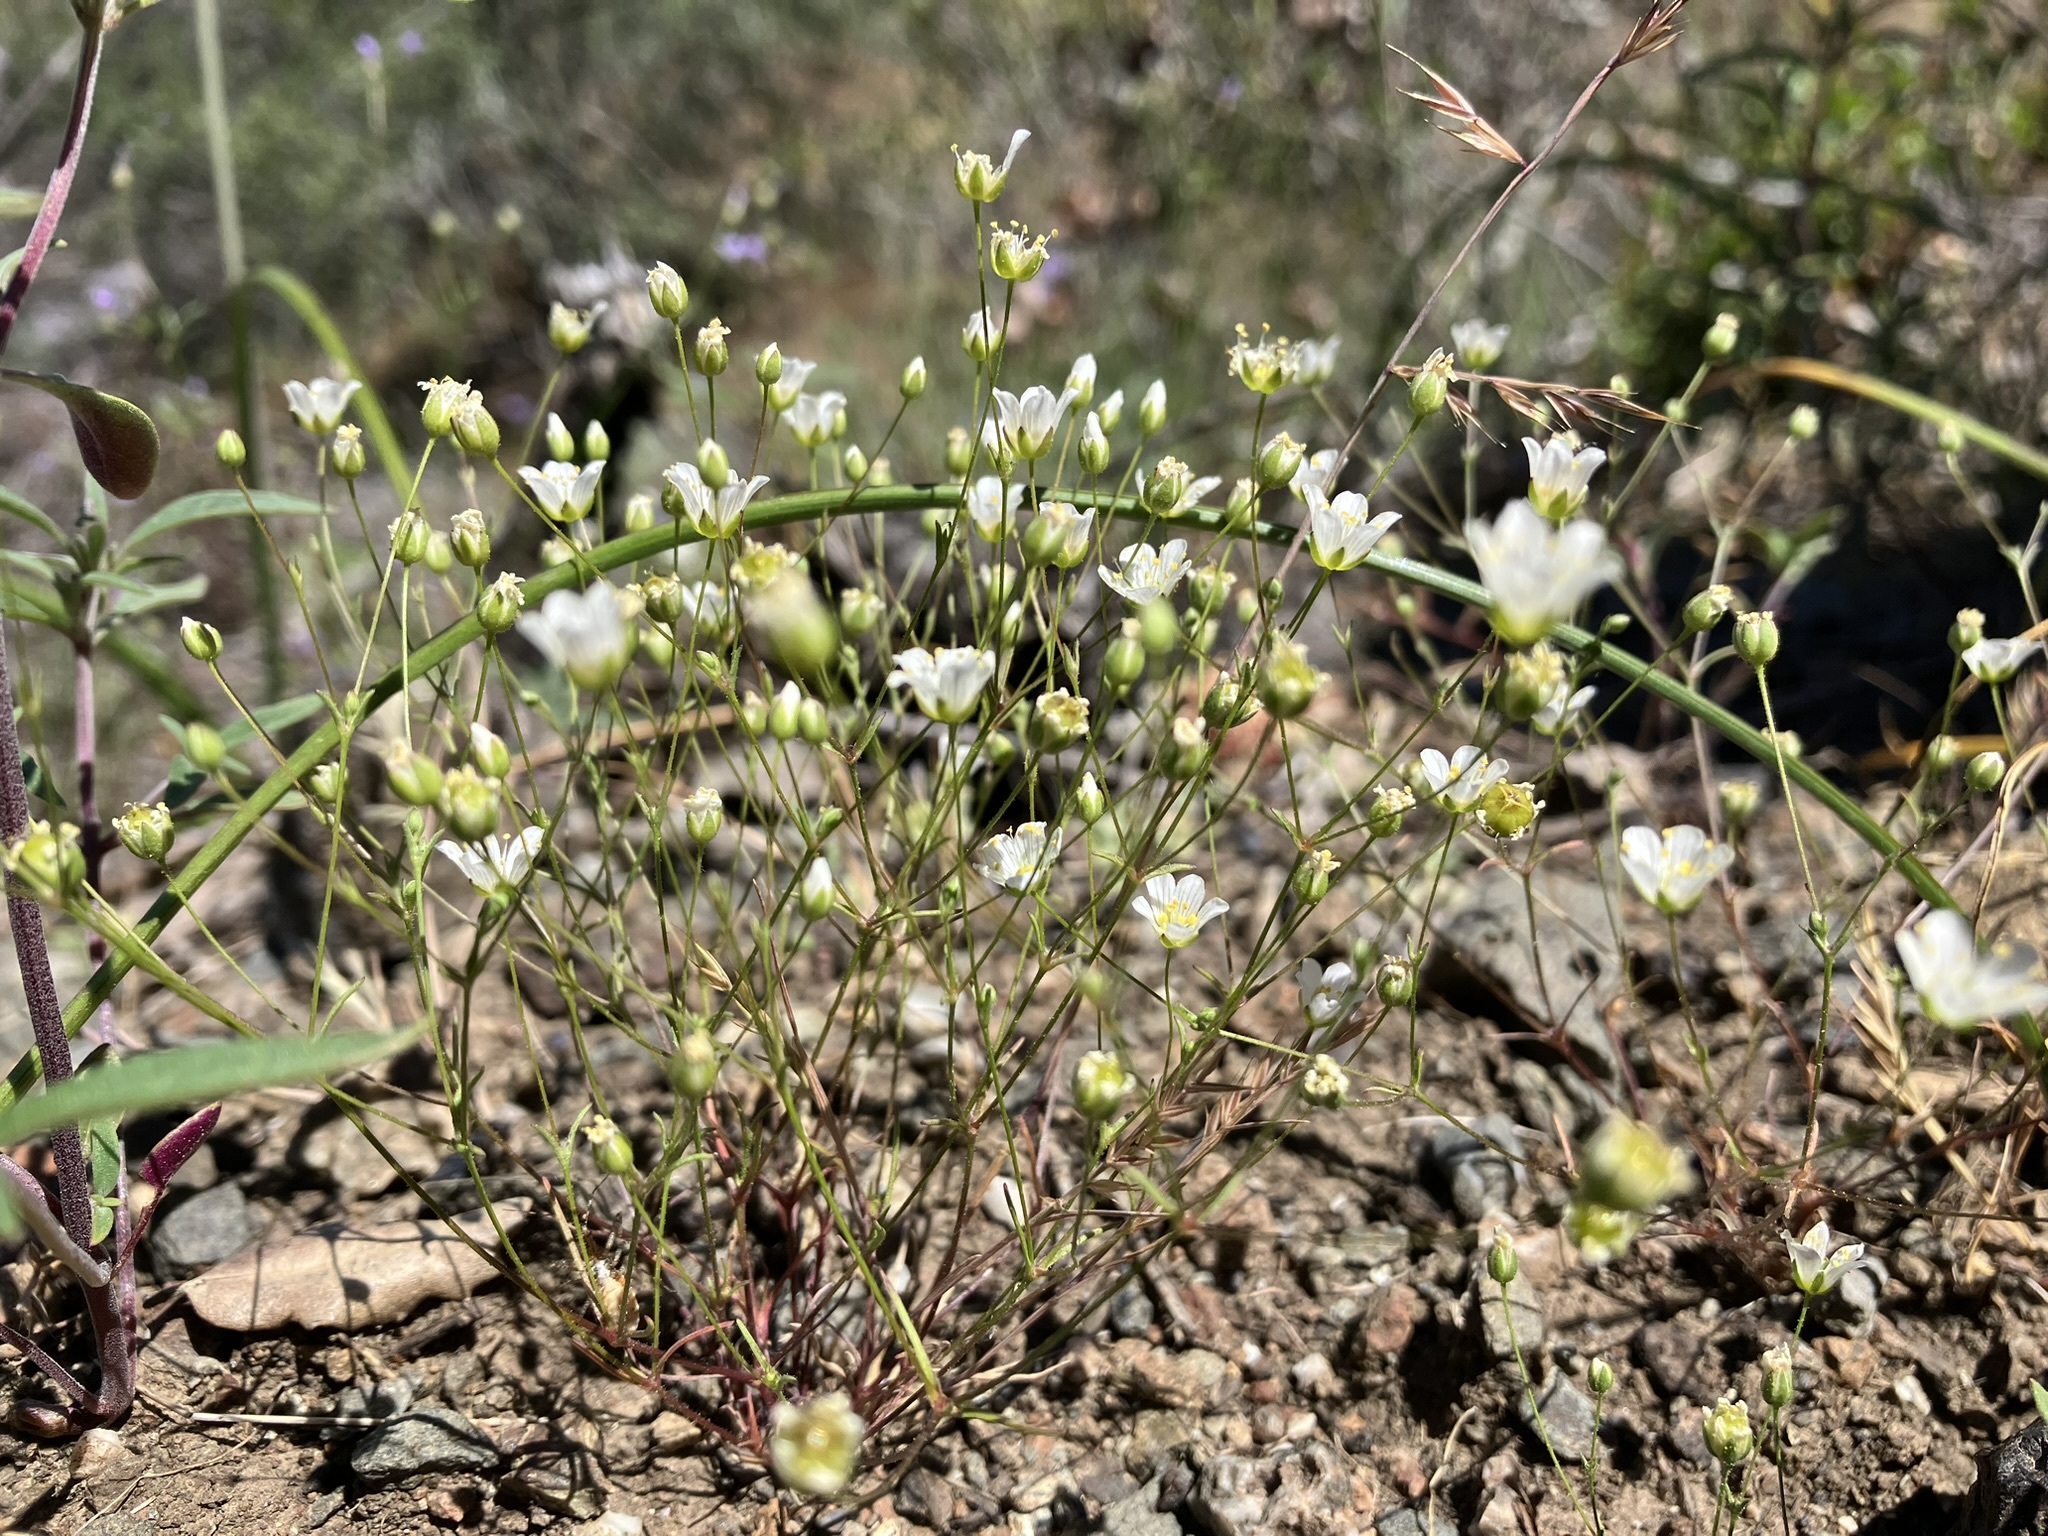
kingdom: Plantae
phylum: Tracheophyta
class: Magnoliopsida
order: Caryophyllales
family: Caryophyllaceae
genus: Sabulina
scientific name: Sabulina douglasii
